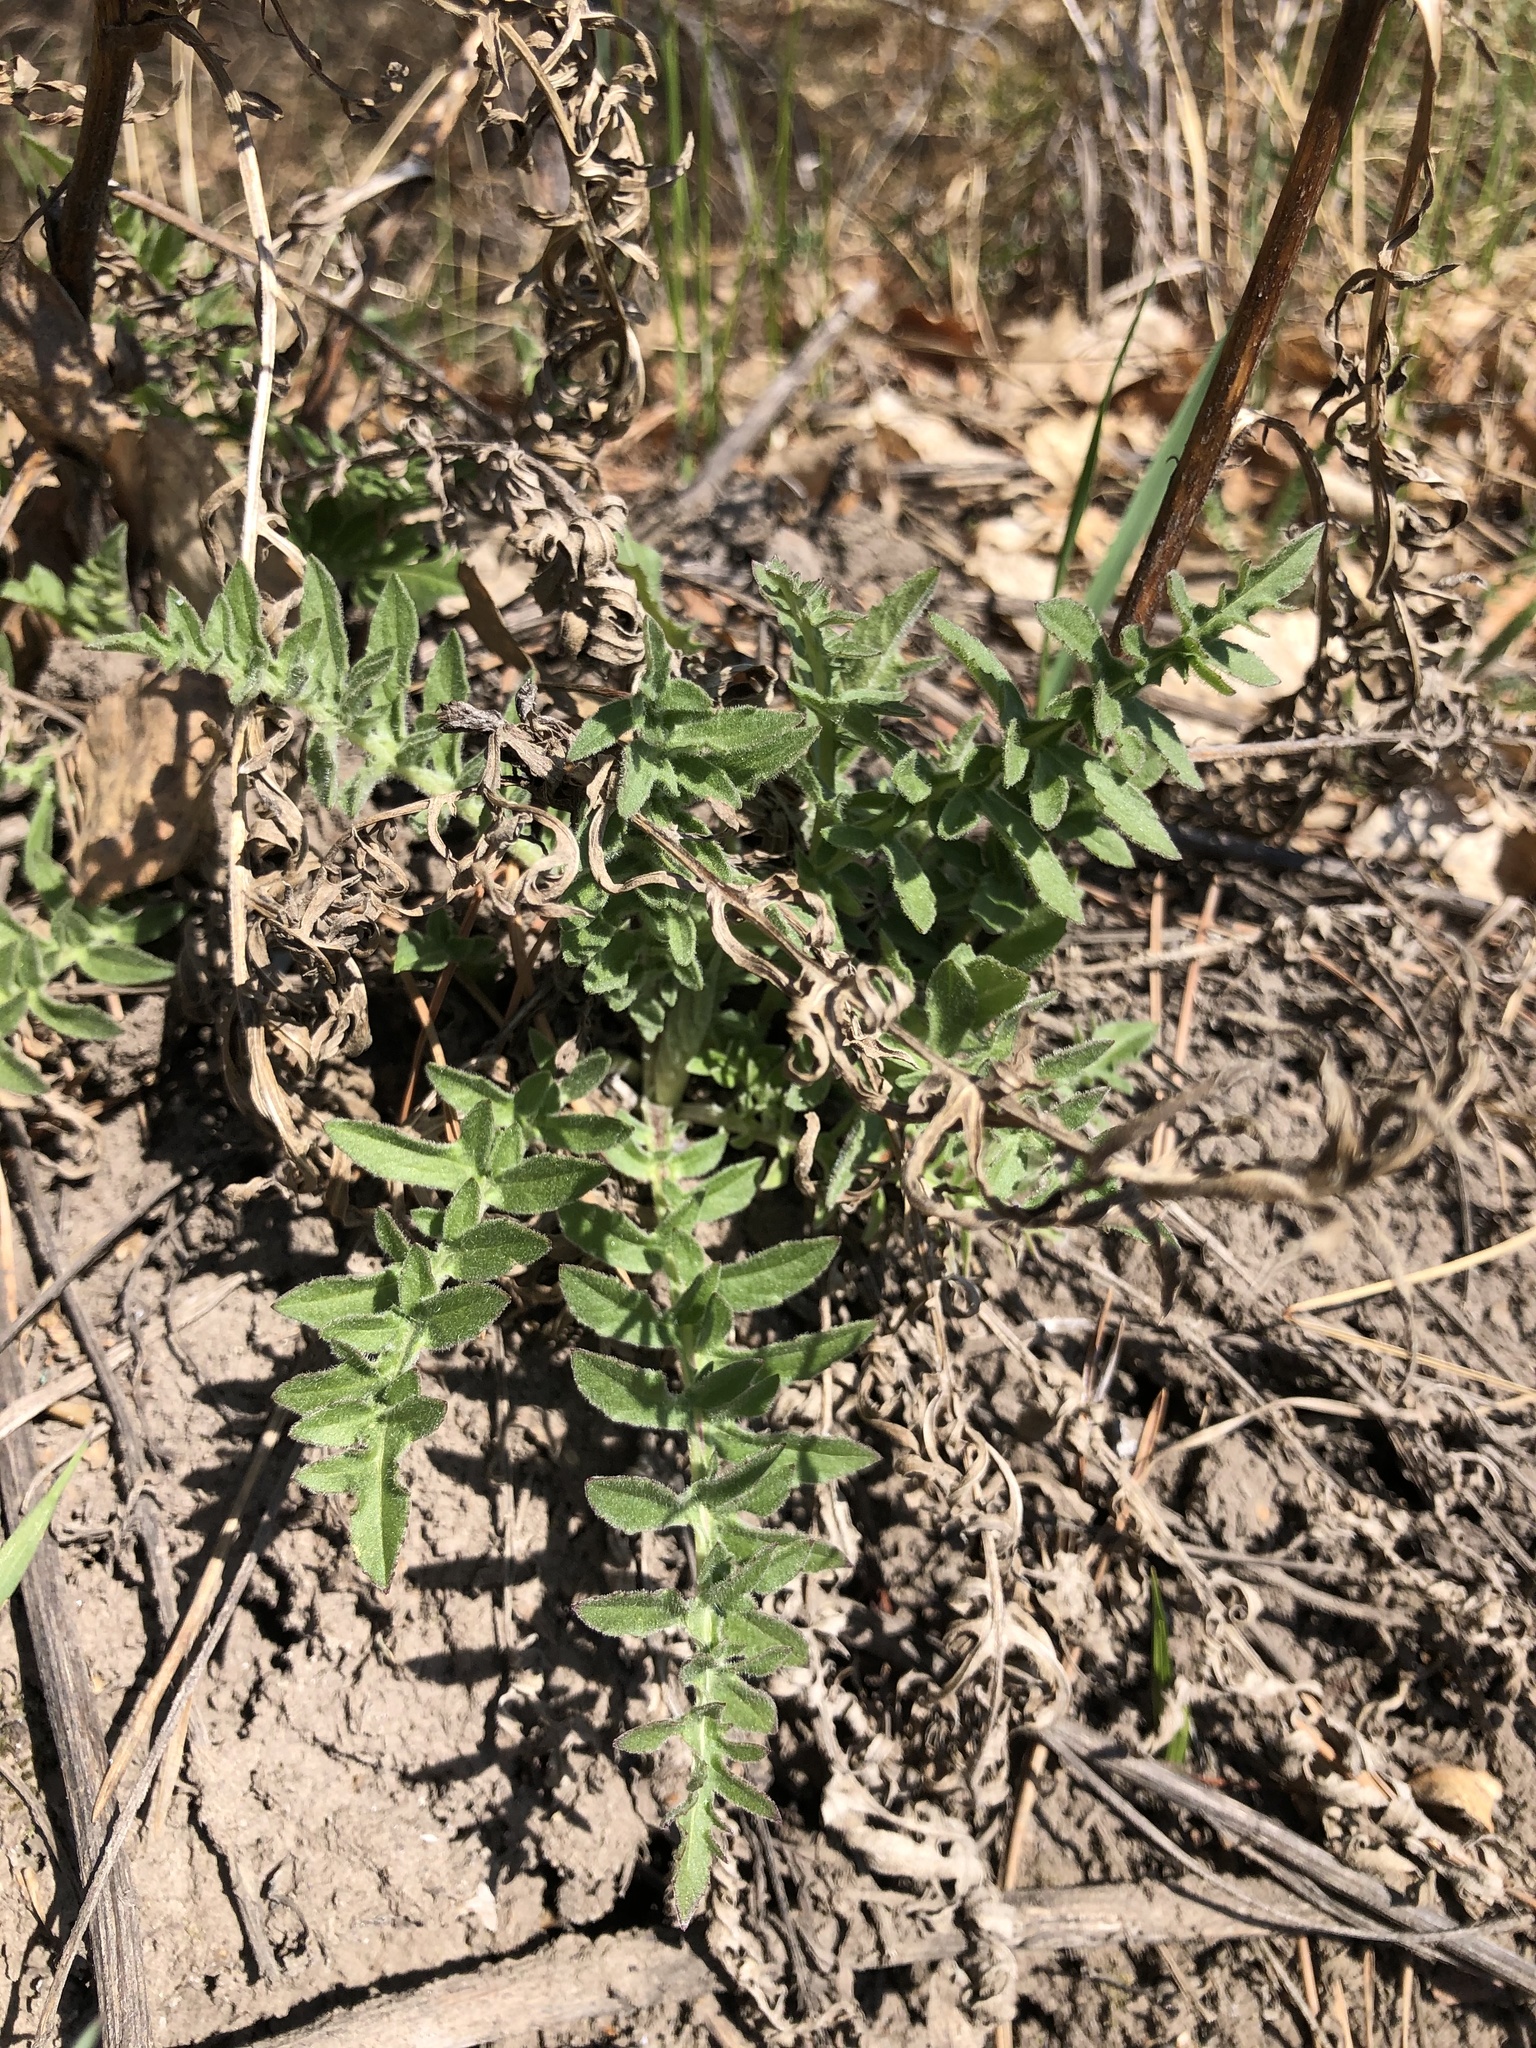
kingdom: Plantae
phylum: Tracheophyta
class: Magnoliopsida
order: Asterales
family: Asteraceae
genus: Centaurea
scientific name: Centaurea scabiosa
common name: Greater knapweed
